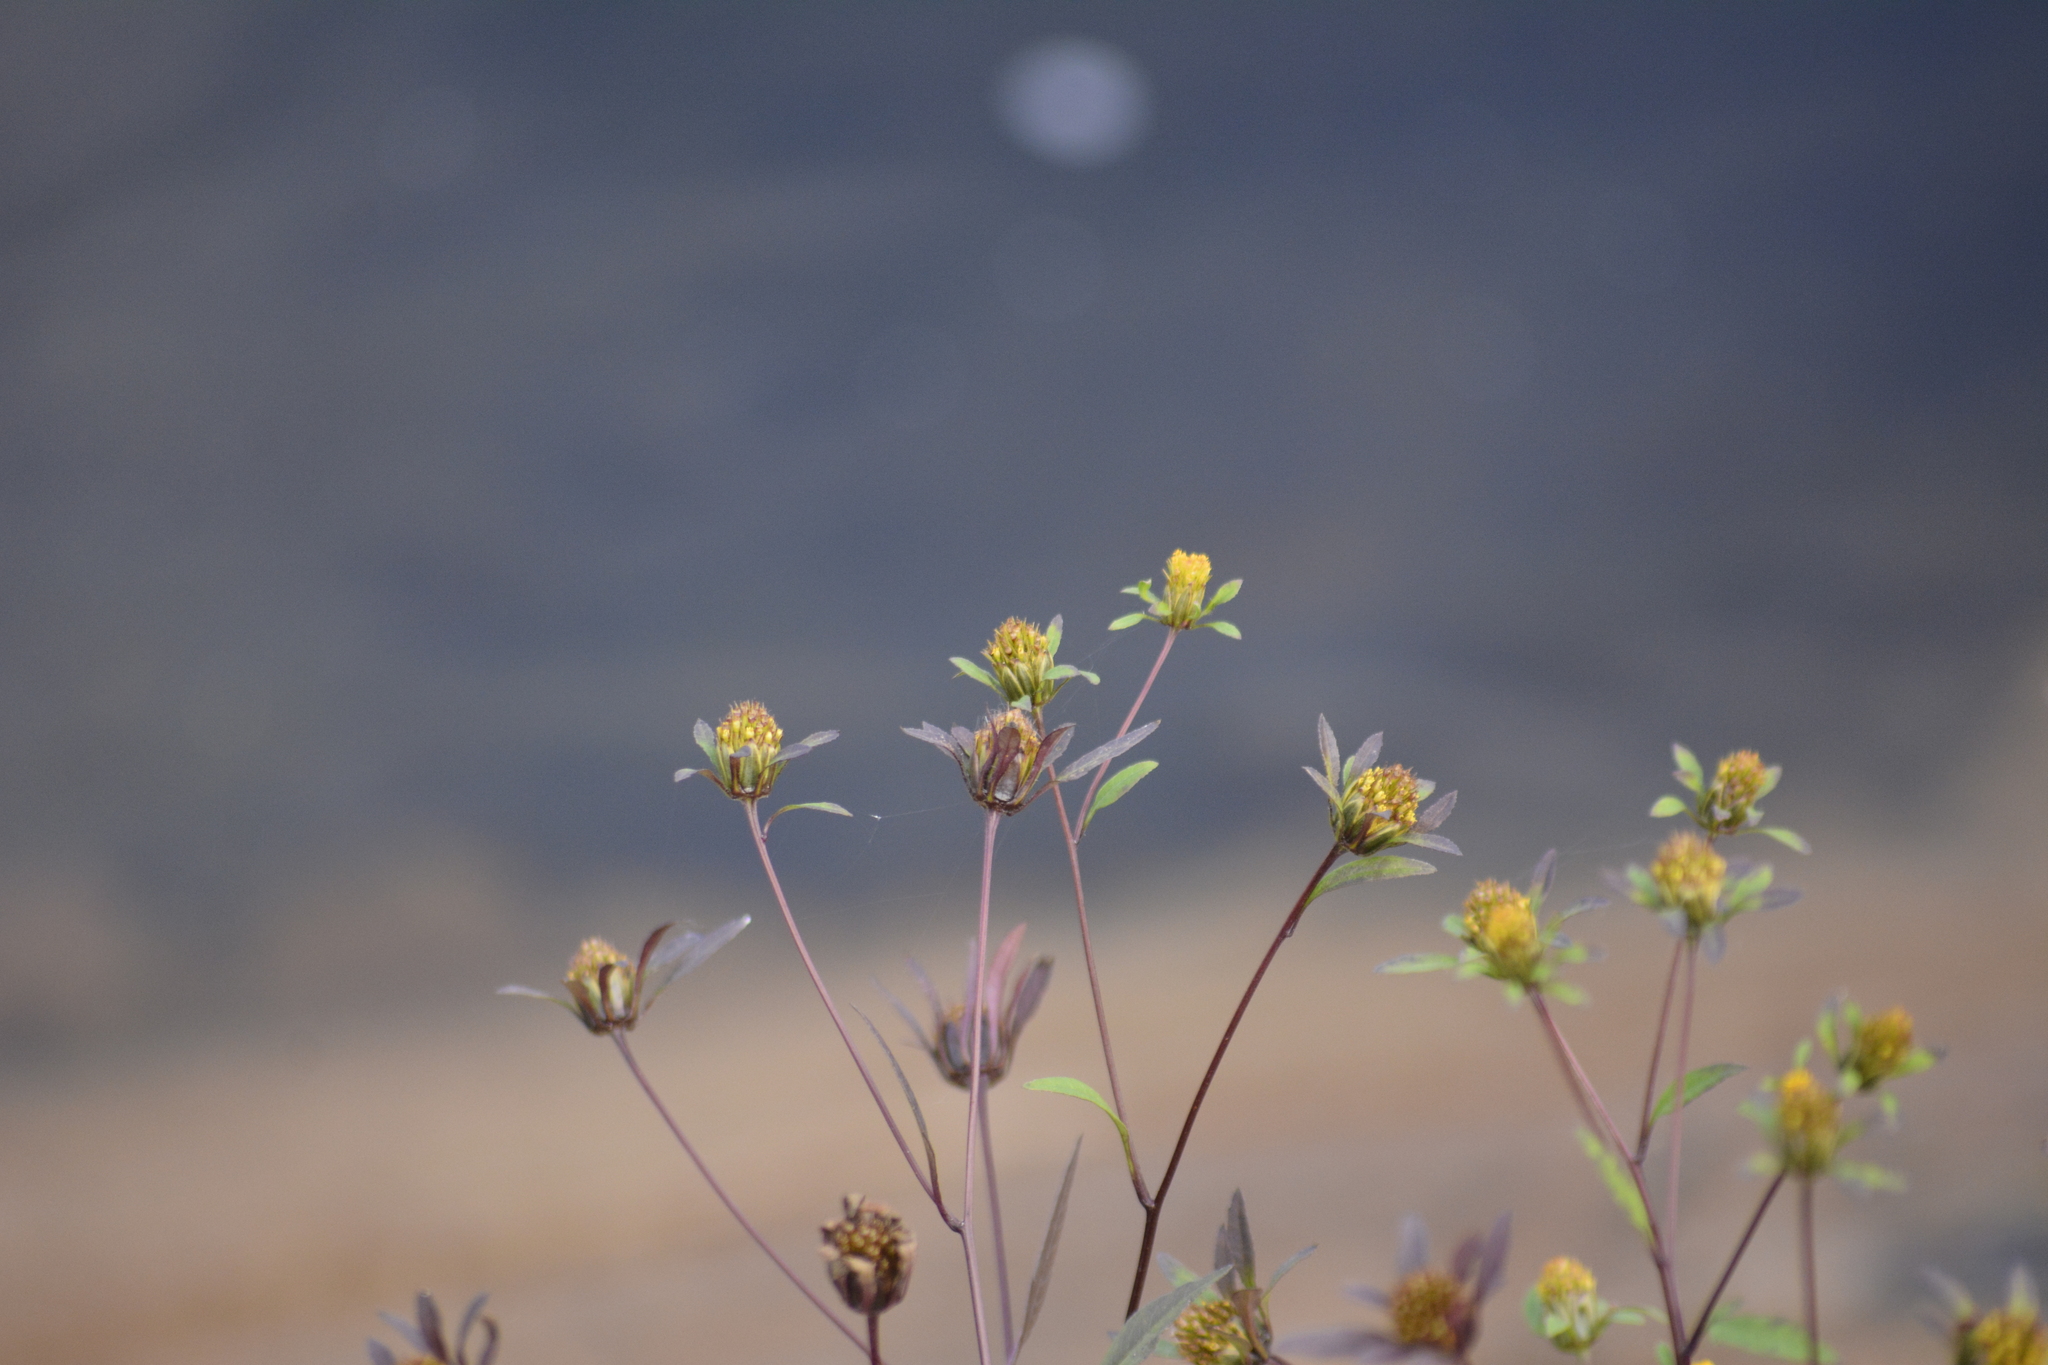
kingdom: Plantae
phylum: Tracheophyta
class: Magnoliopsida
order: Asterales
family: Asteraceae
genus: Bidens
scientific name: Bidens frondosa
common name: Beggarticks
